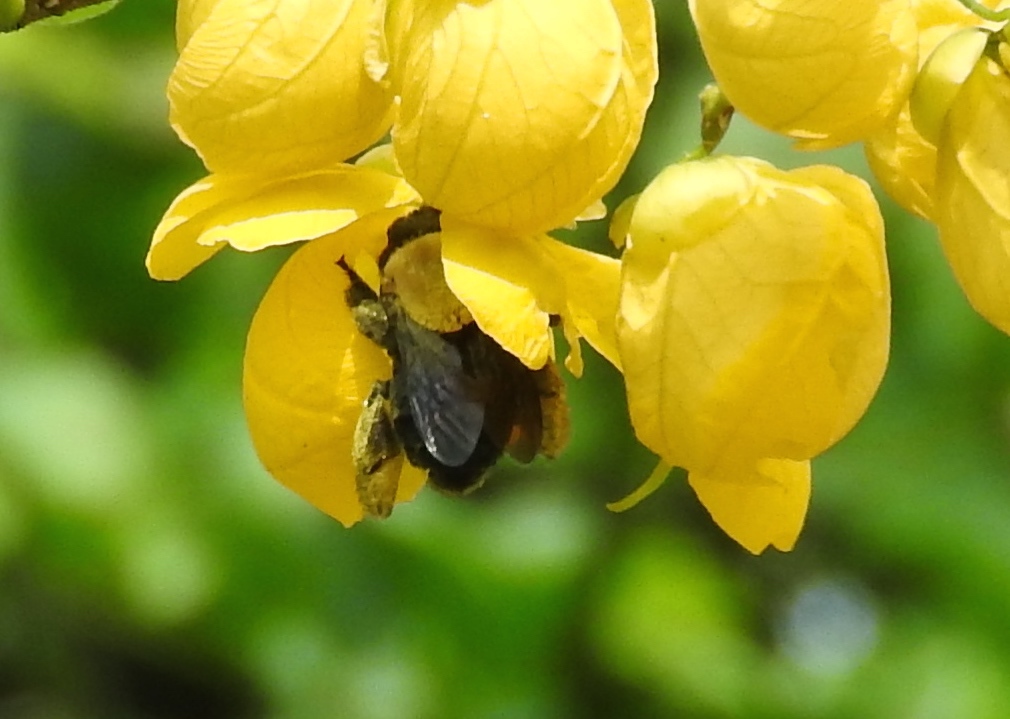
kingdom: Animalia
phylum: Arthropoda
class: Insecta
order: Hymenoptera
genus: Paracentris
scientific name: Paracentris
